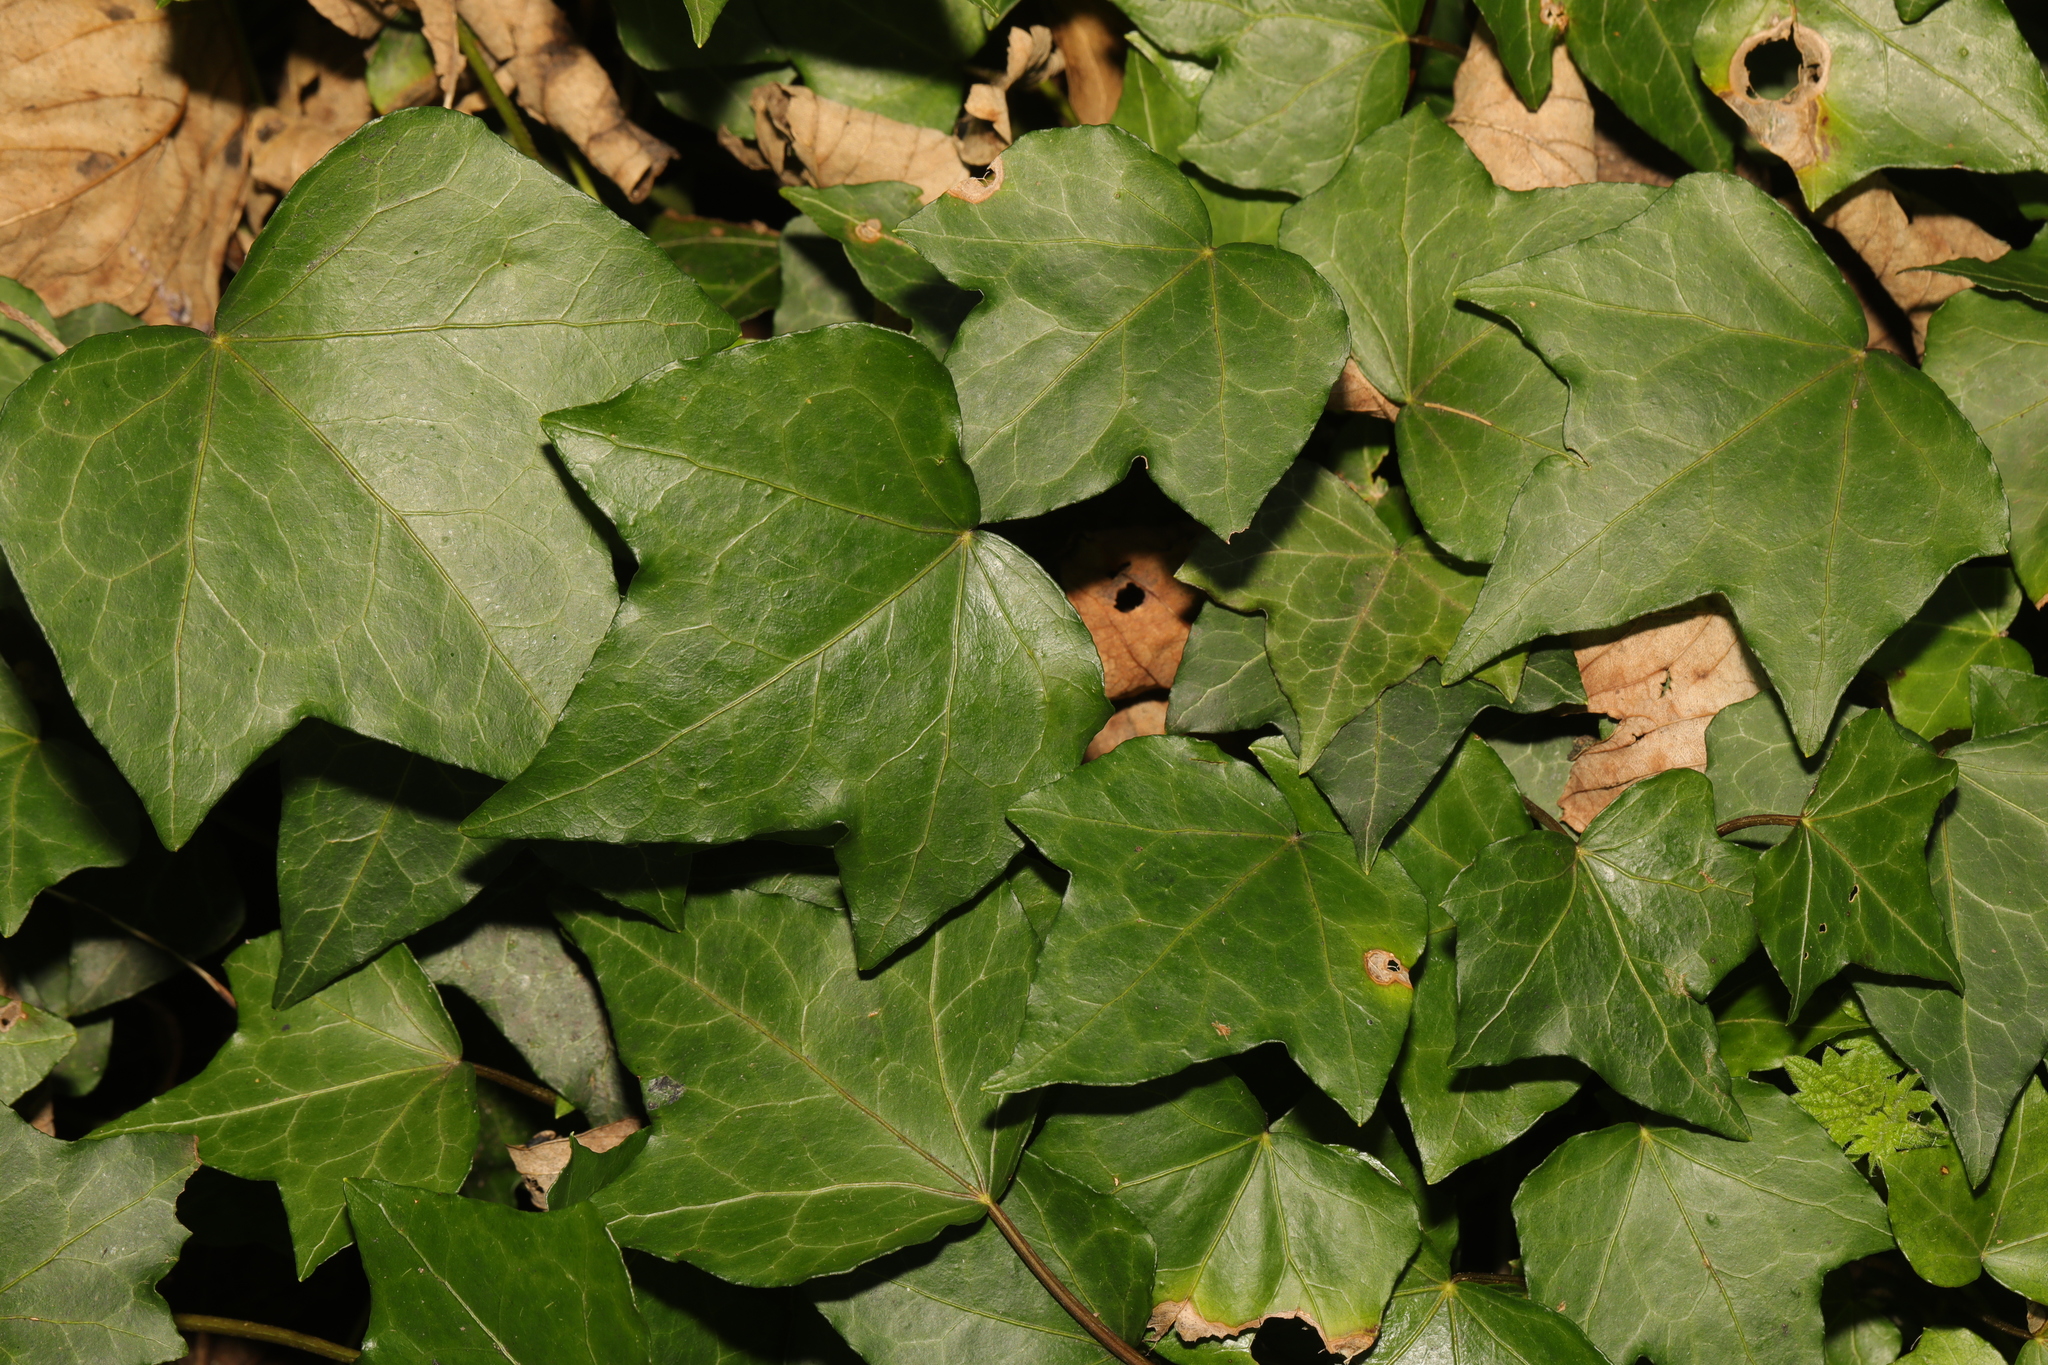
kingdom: Plantae
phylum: Tracheophyta
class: Magnoliopsida
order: Apiales
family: Araliaceae
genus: Hedera
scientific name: Hedera helix
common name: Ivy
